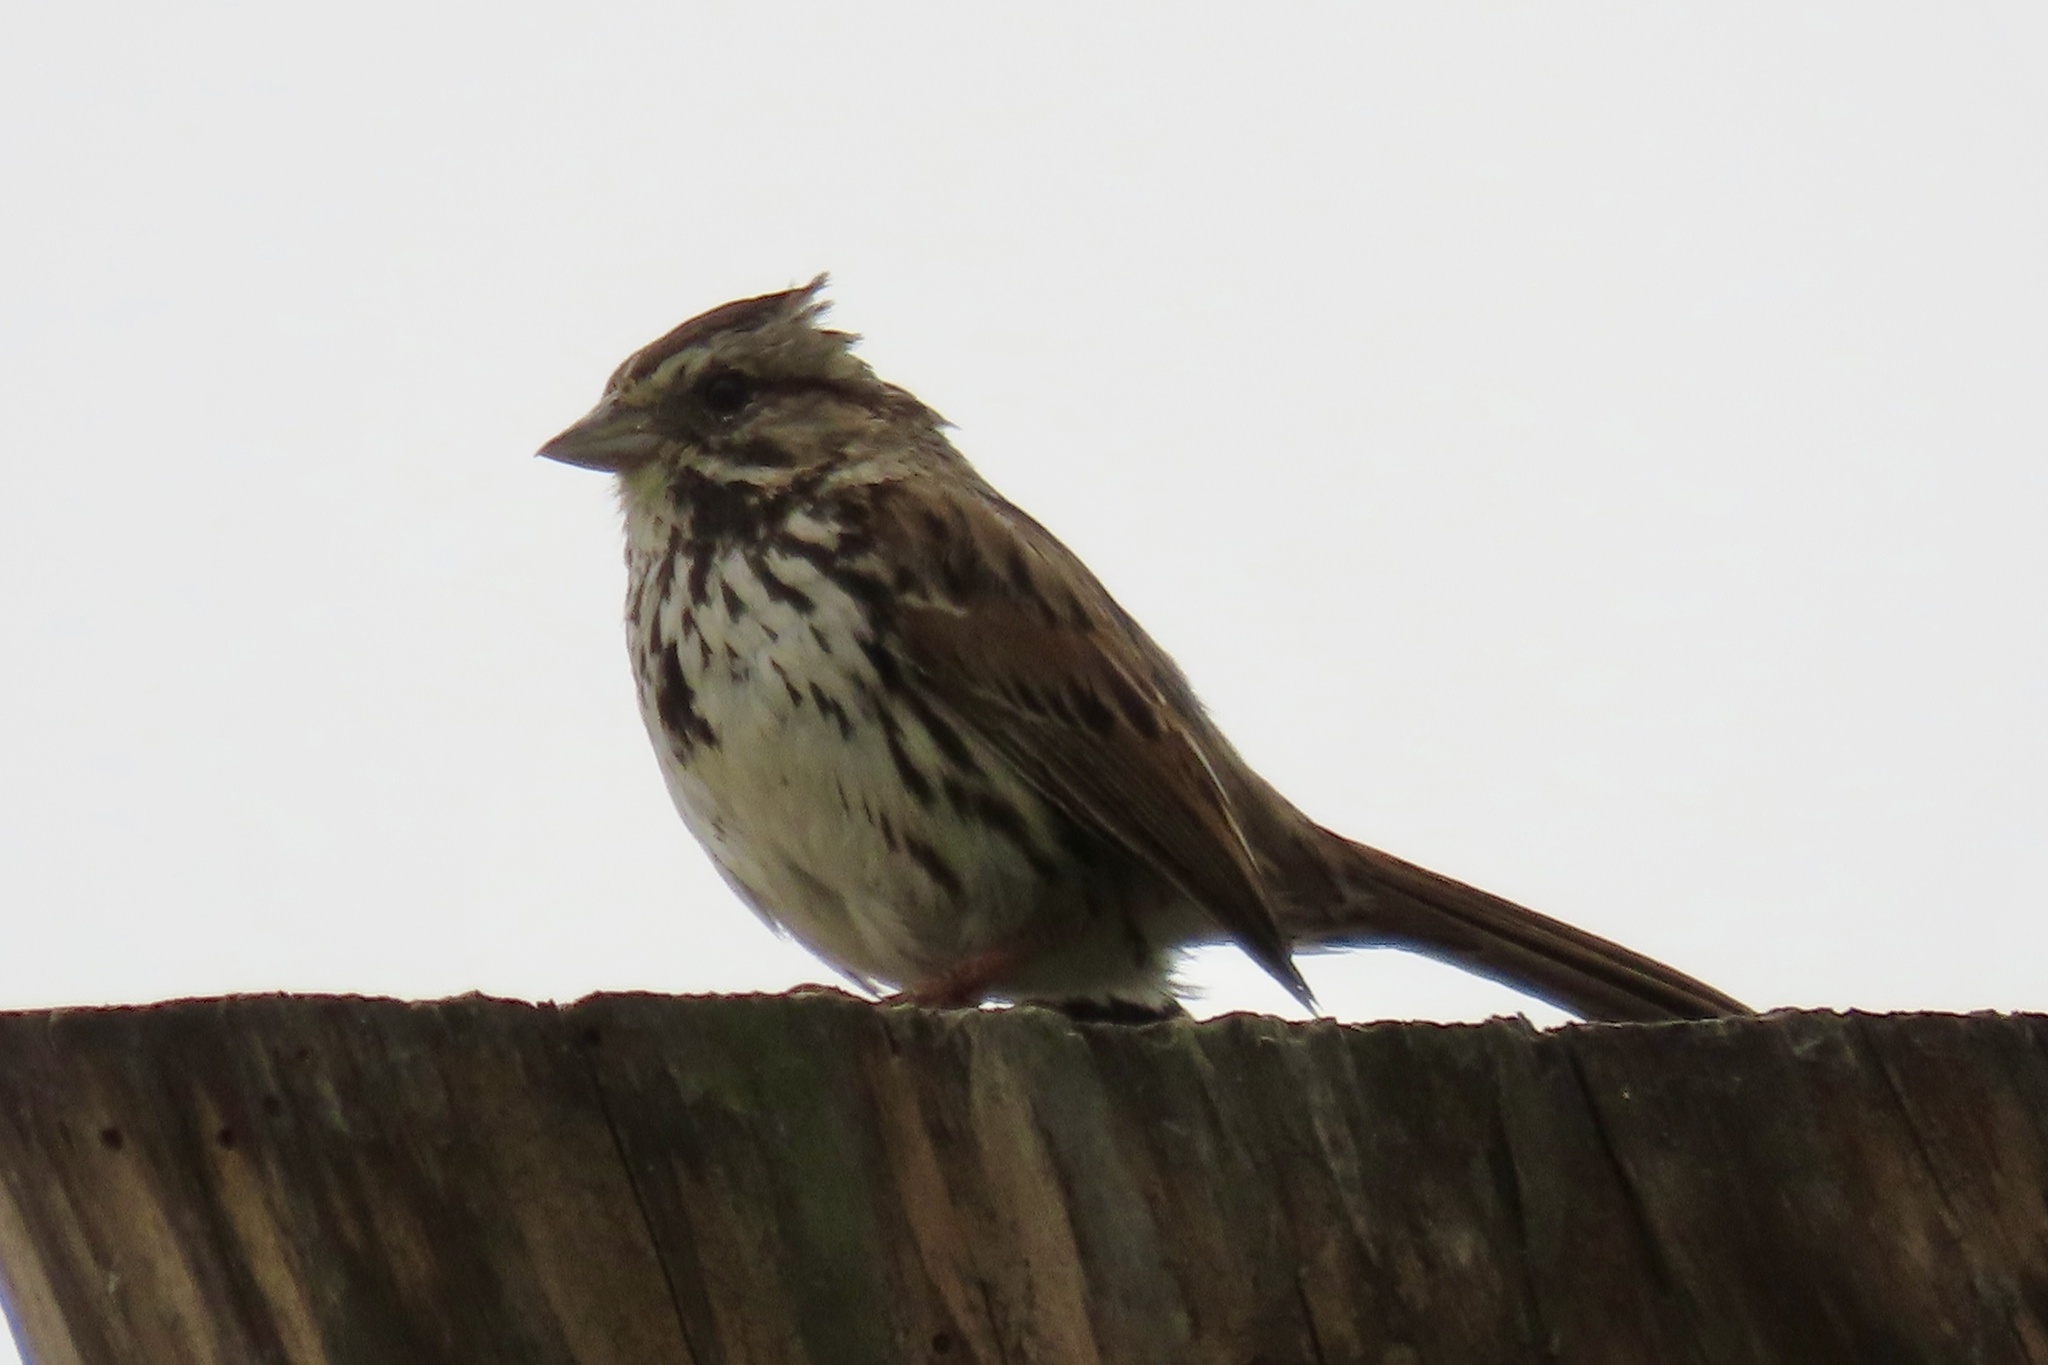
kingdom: Animalia
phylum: Chordata
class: Aves
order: Passeriformes
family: Passerellidae
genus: Melospiza
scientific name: Melospiza melodia
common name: Song sparrow
